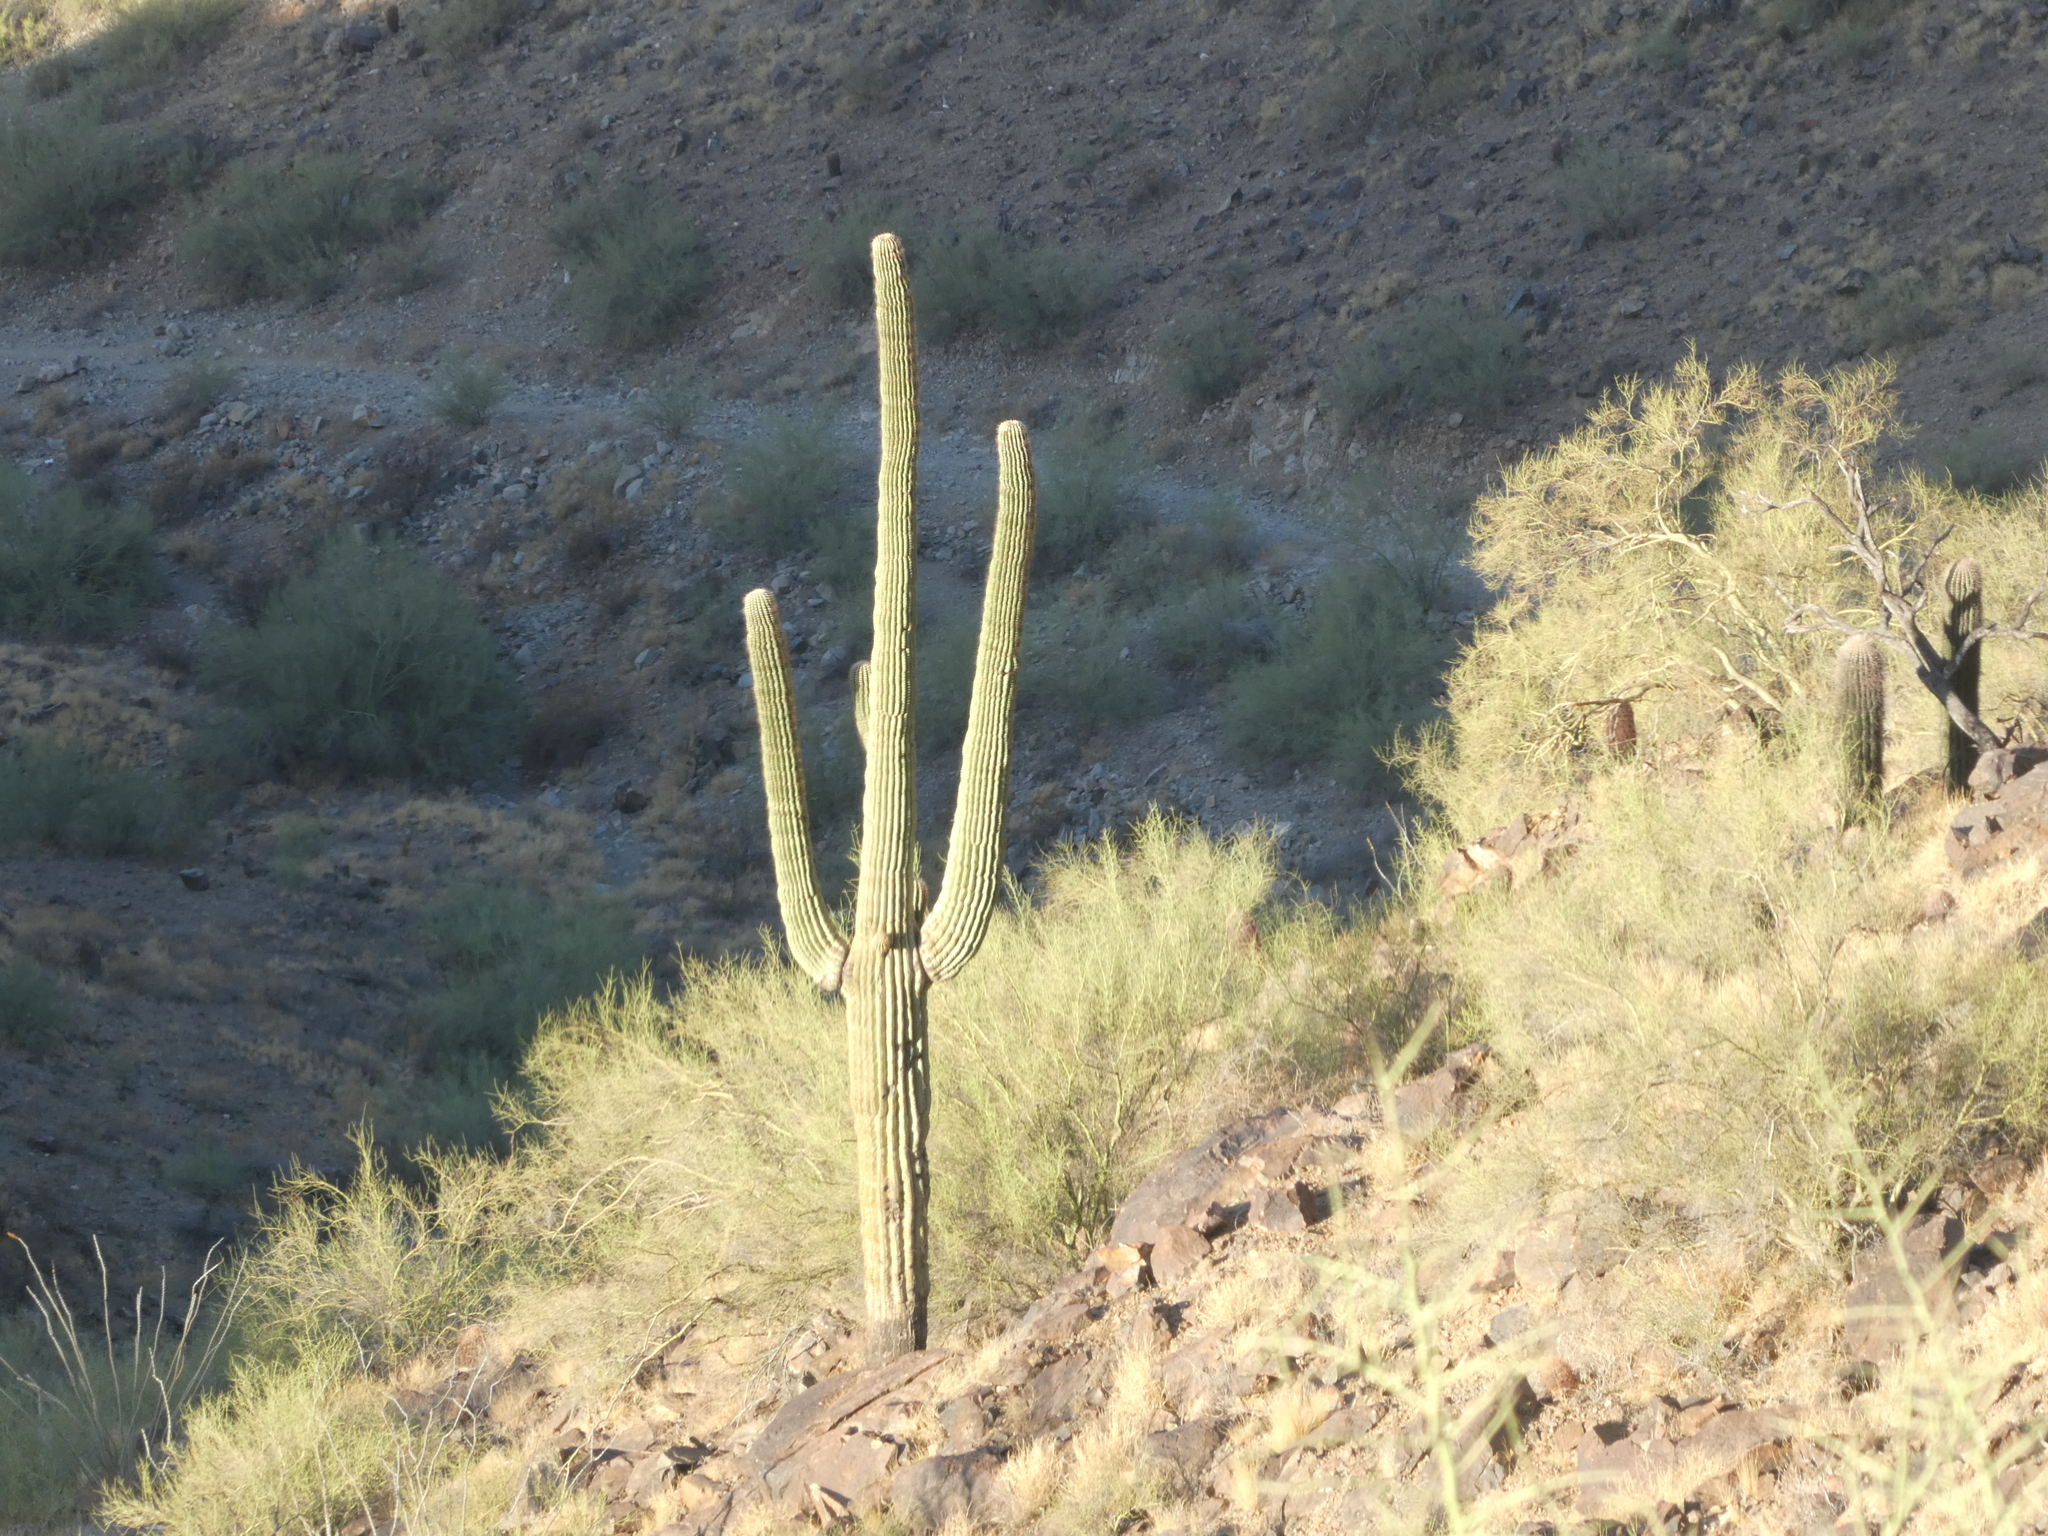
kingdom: Plantae
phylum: Tracheophyta
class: Magnoliopsida
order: Caryophyllales
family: Cactaceae
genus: Carnegiea
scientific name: Carnegiea gigantea
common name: Saguaro
